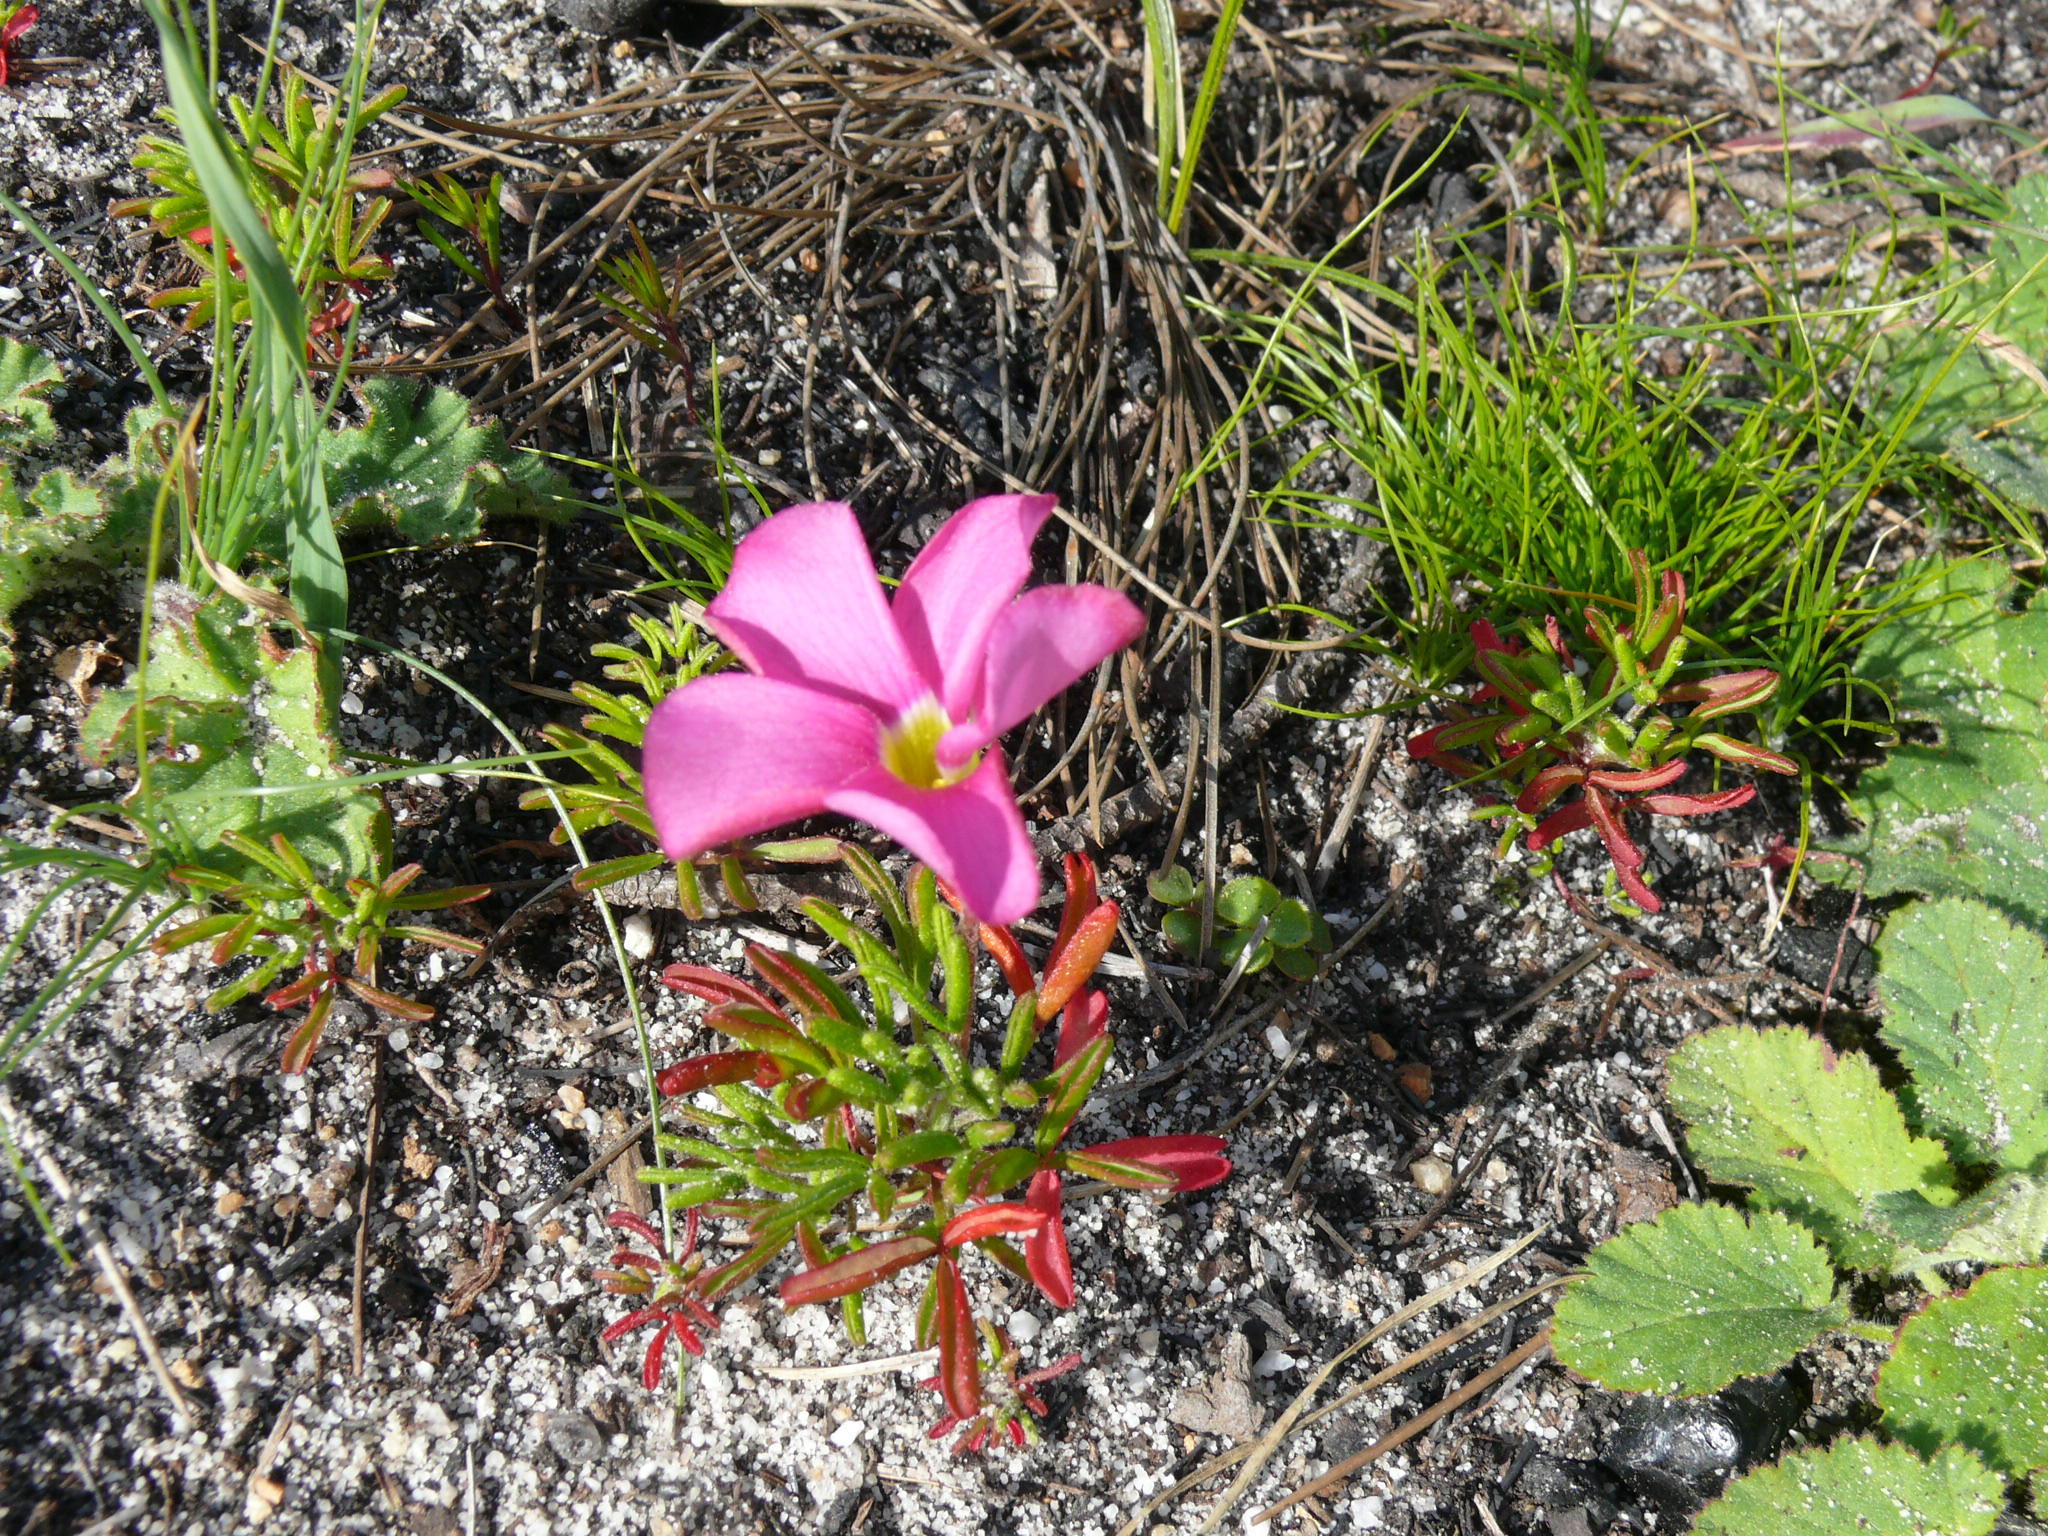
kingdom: Plantae
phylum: Tracheophyta
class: Magnoliopsida
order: Oxalidales
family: Oxalidaceae
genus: Oxalis
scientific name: Oxalis glabra
